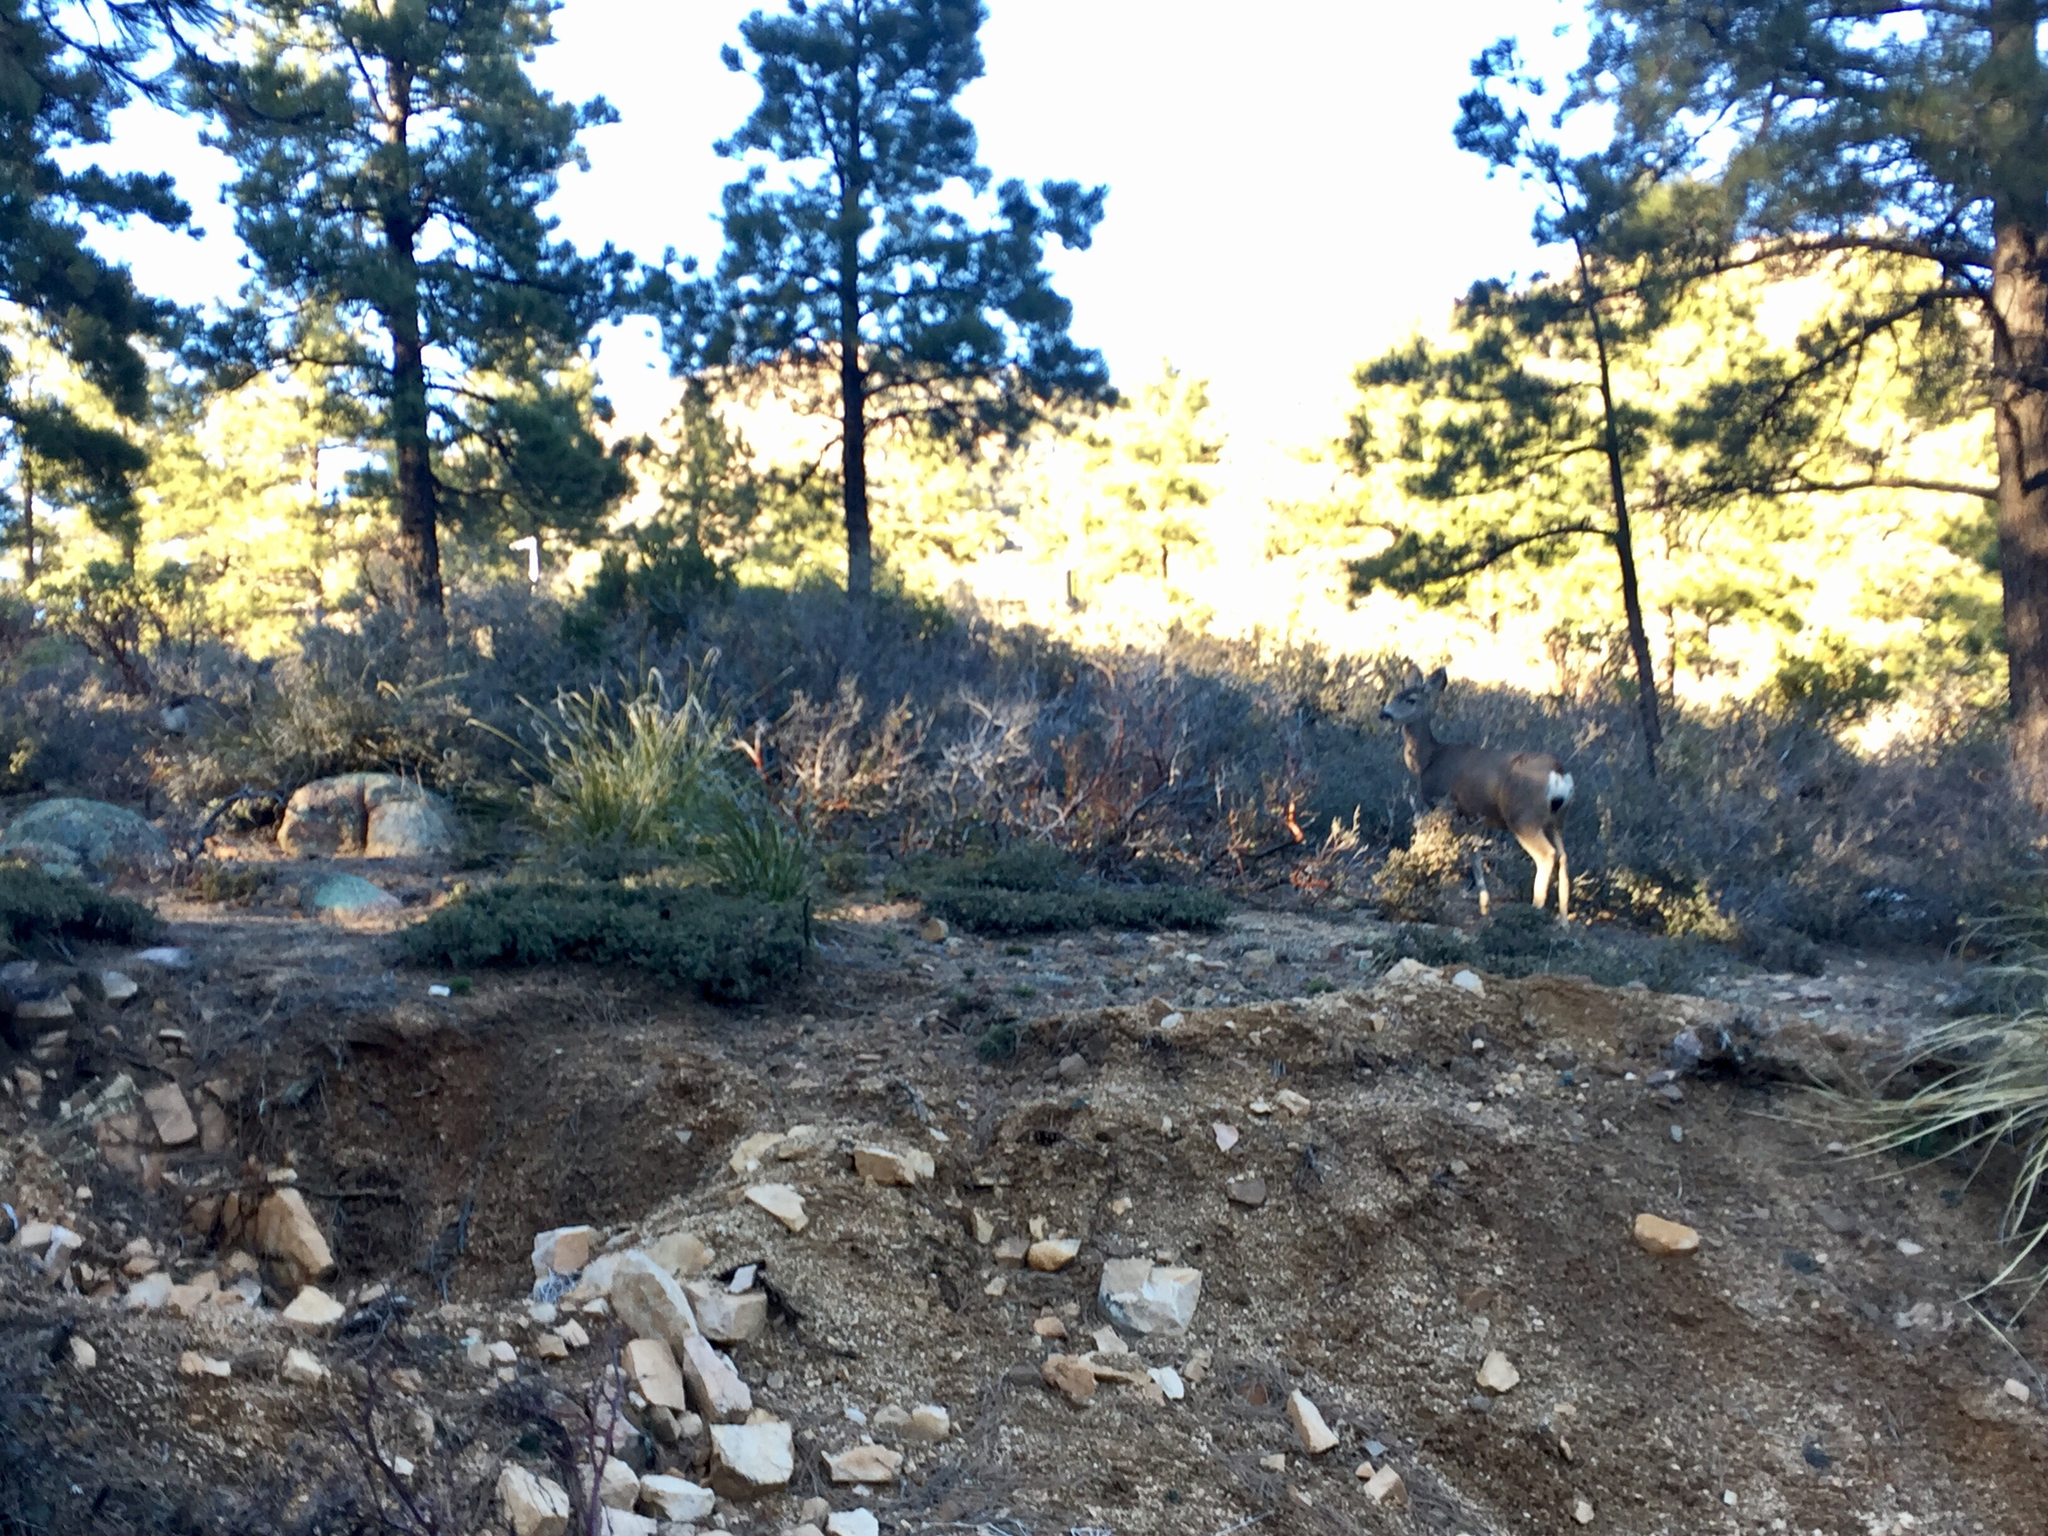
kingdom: Animalia
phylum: Chordata
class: Mammalia
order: Artiodactyla
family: Cervidae
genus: Odocoileus
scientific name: Odocoileus hemionus
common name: Mule deer
